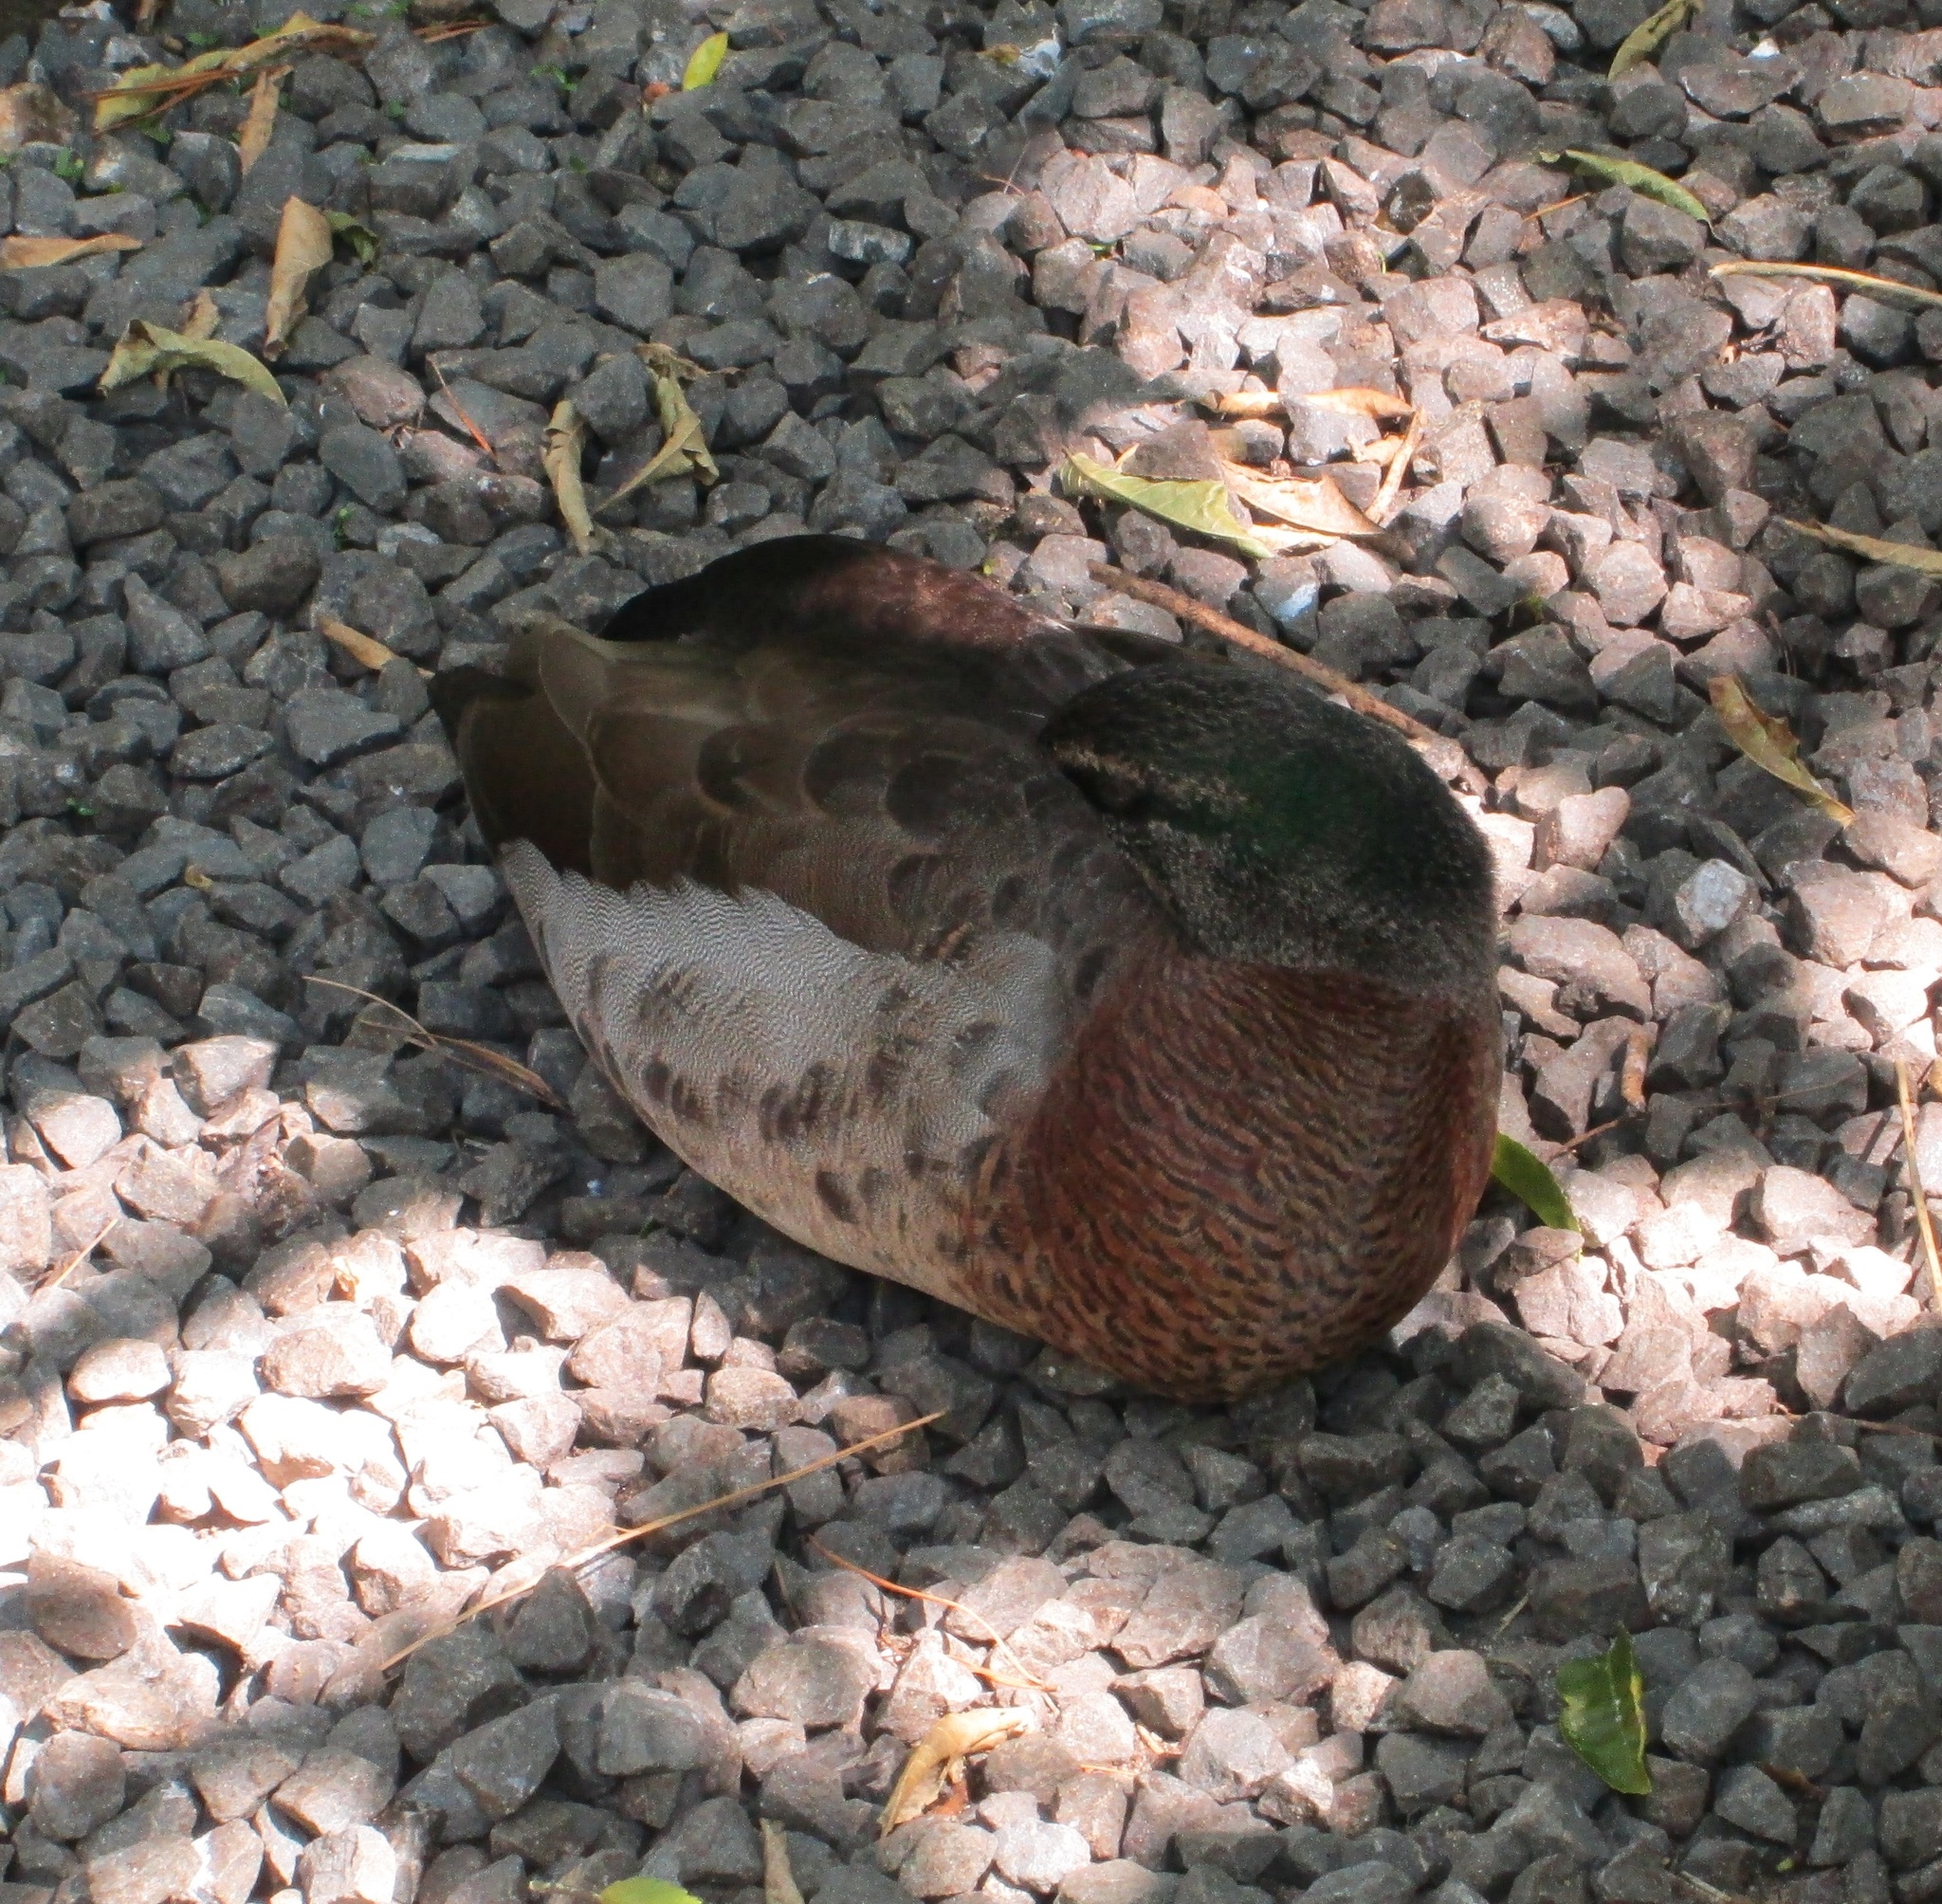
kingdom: Animalia
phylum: Chordata
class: Aves
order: Anseriformes
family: Anatidae
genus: Anas
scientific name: Anas
